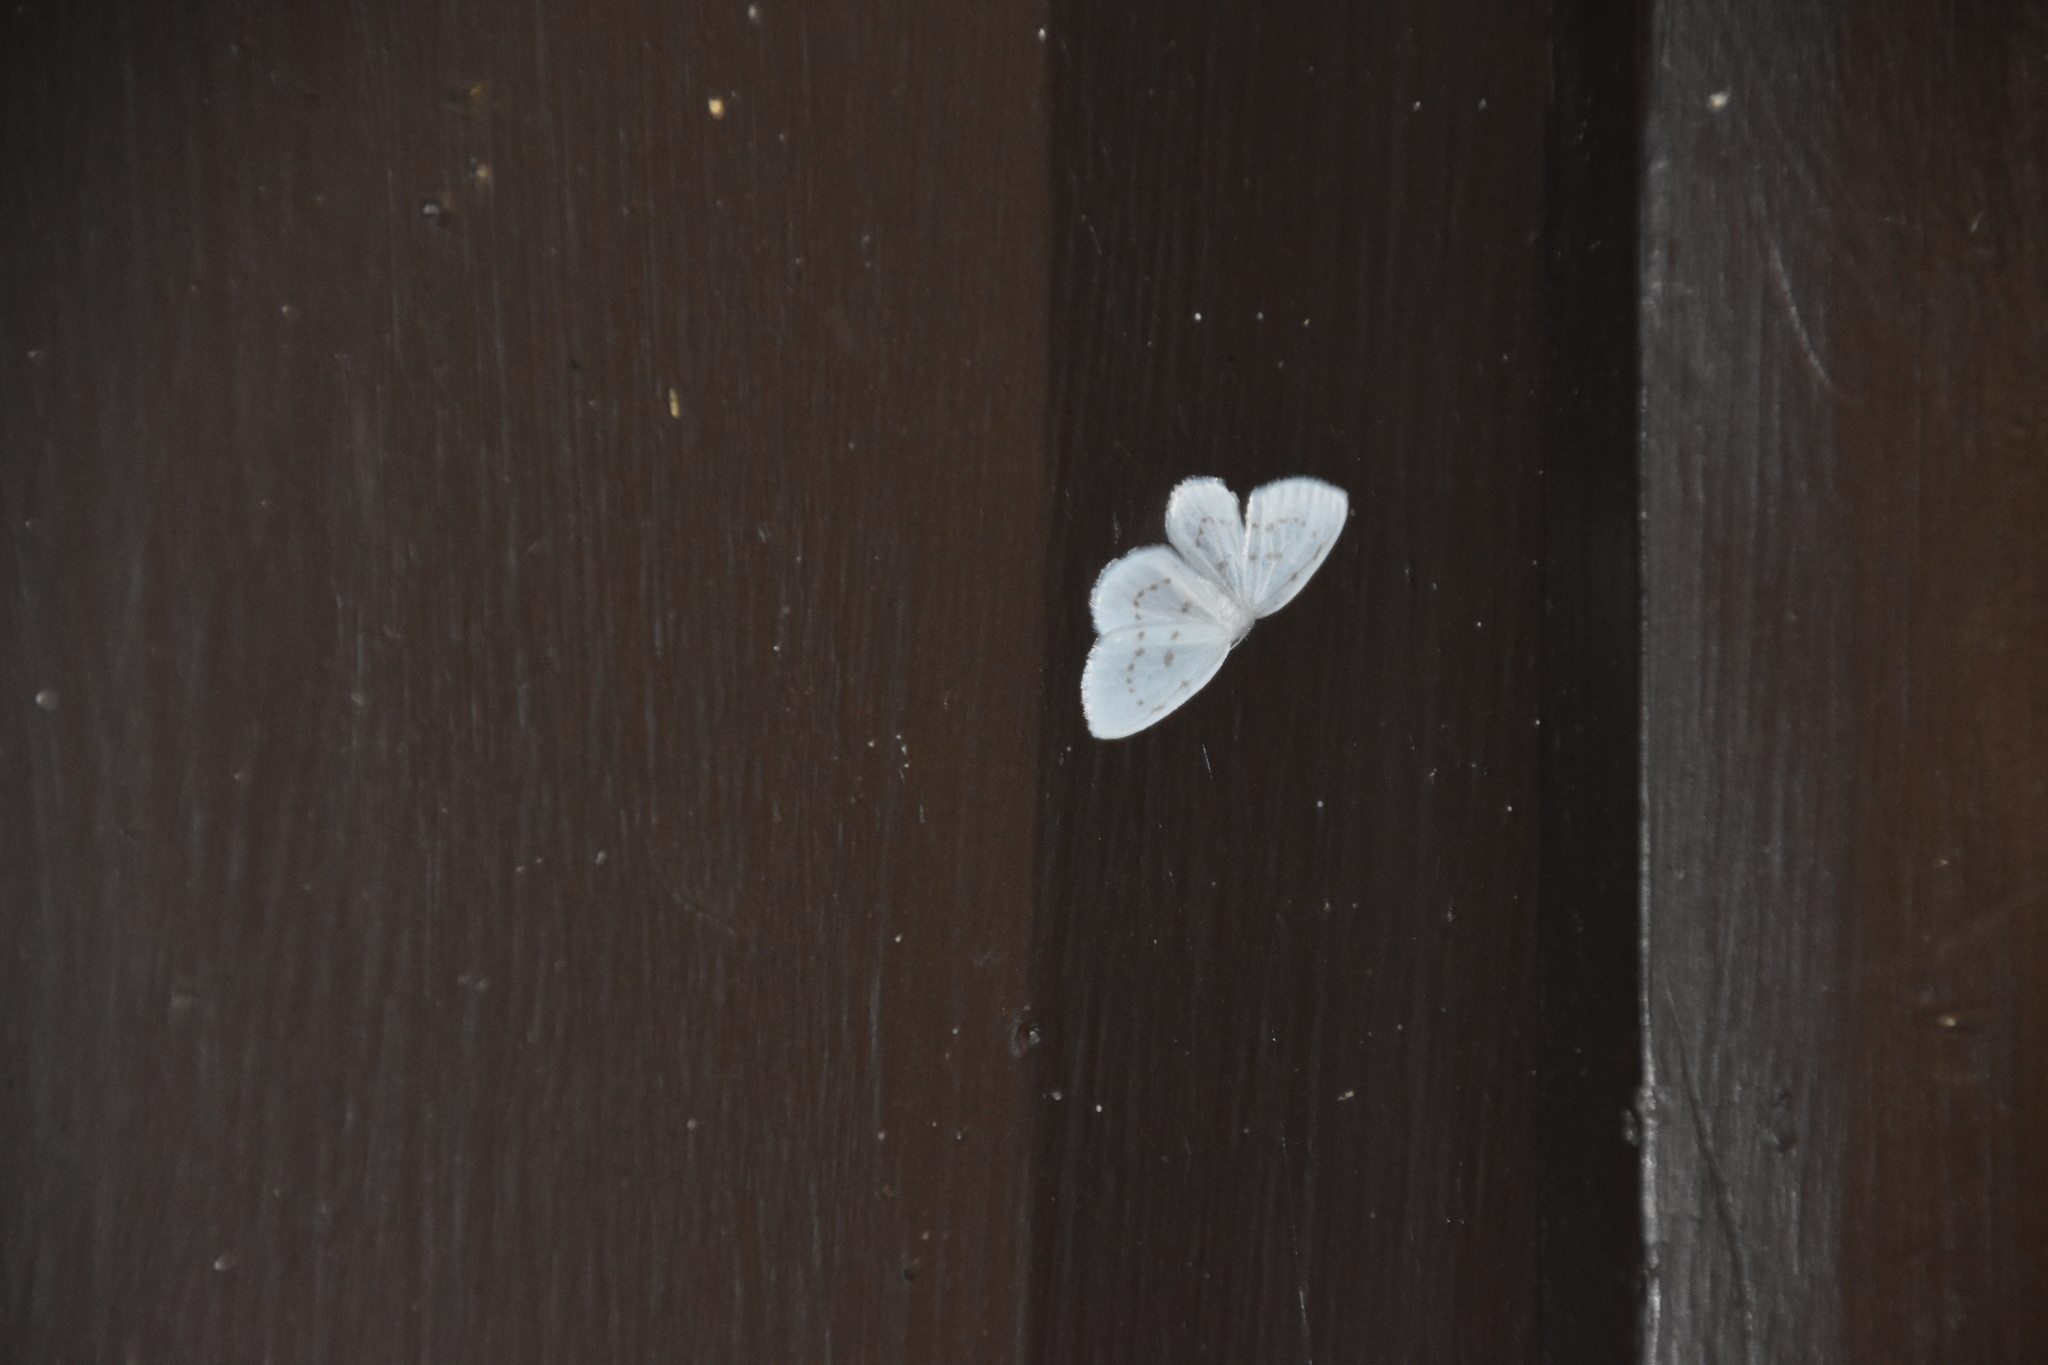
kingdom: Animalia
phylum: Arthropoda
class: Insecta
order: Lepidoptera
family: Drepanidae
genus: Eudeilinia
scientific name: Eudeilinia herminiata
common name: Northern eudeilinea moth
